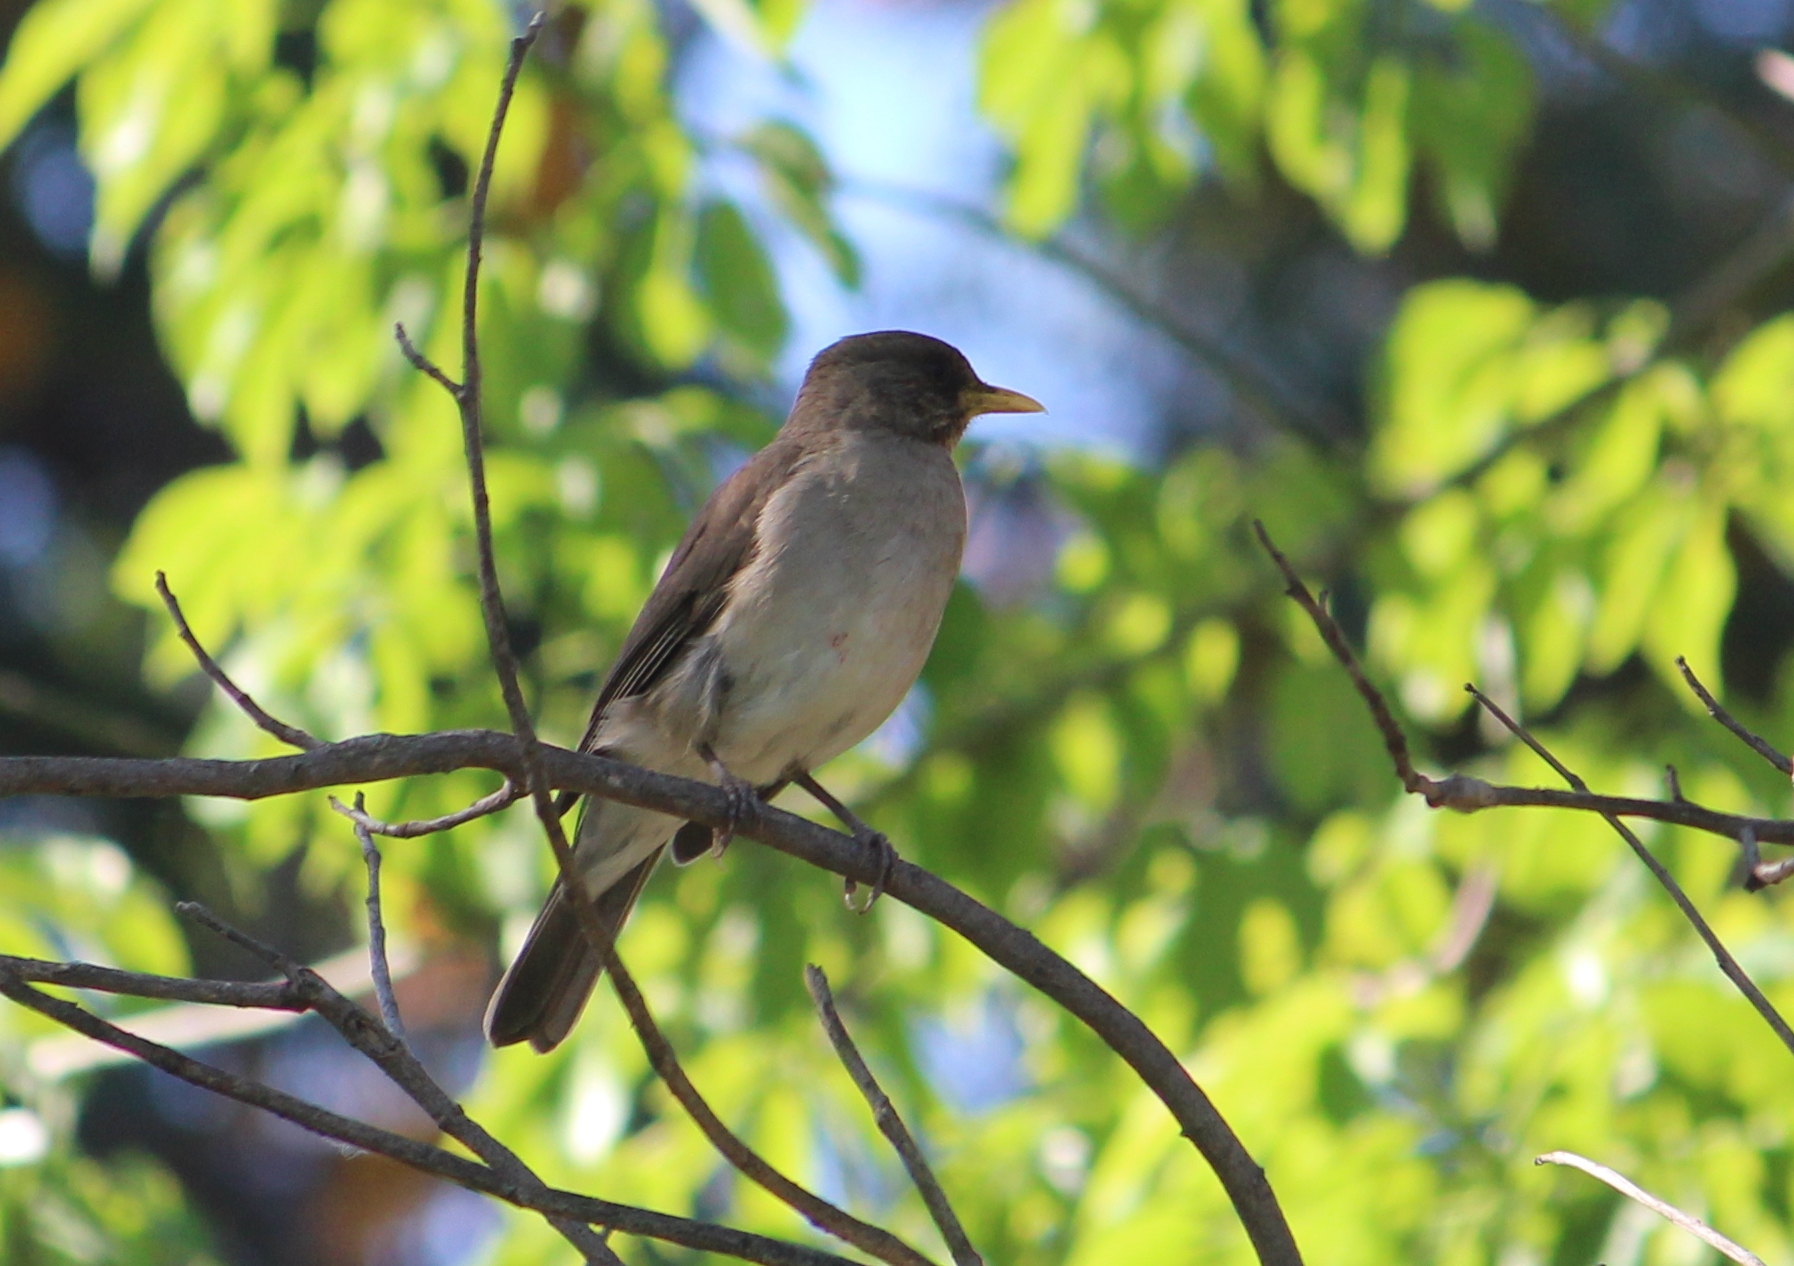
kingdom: Animalia
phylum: Chordata
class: Aves
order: Passeriformes
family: Turdidae
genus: Turdus
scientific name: Turdus amaurochalinus
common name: Creamy-bellied thrush
